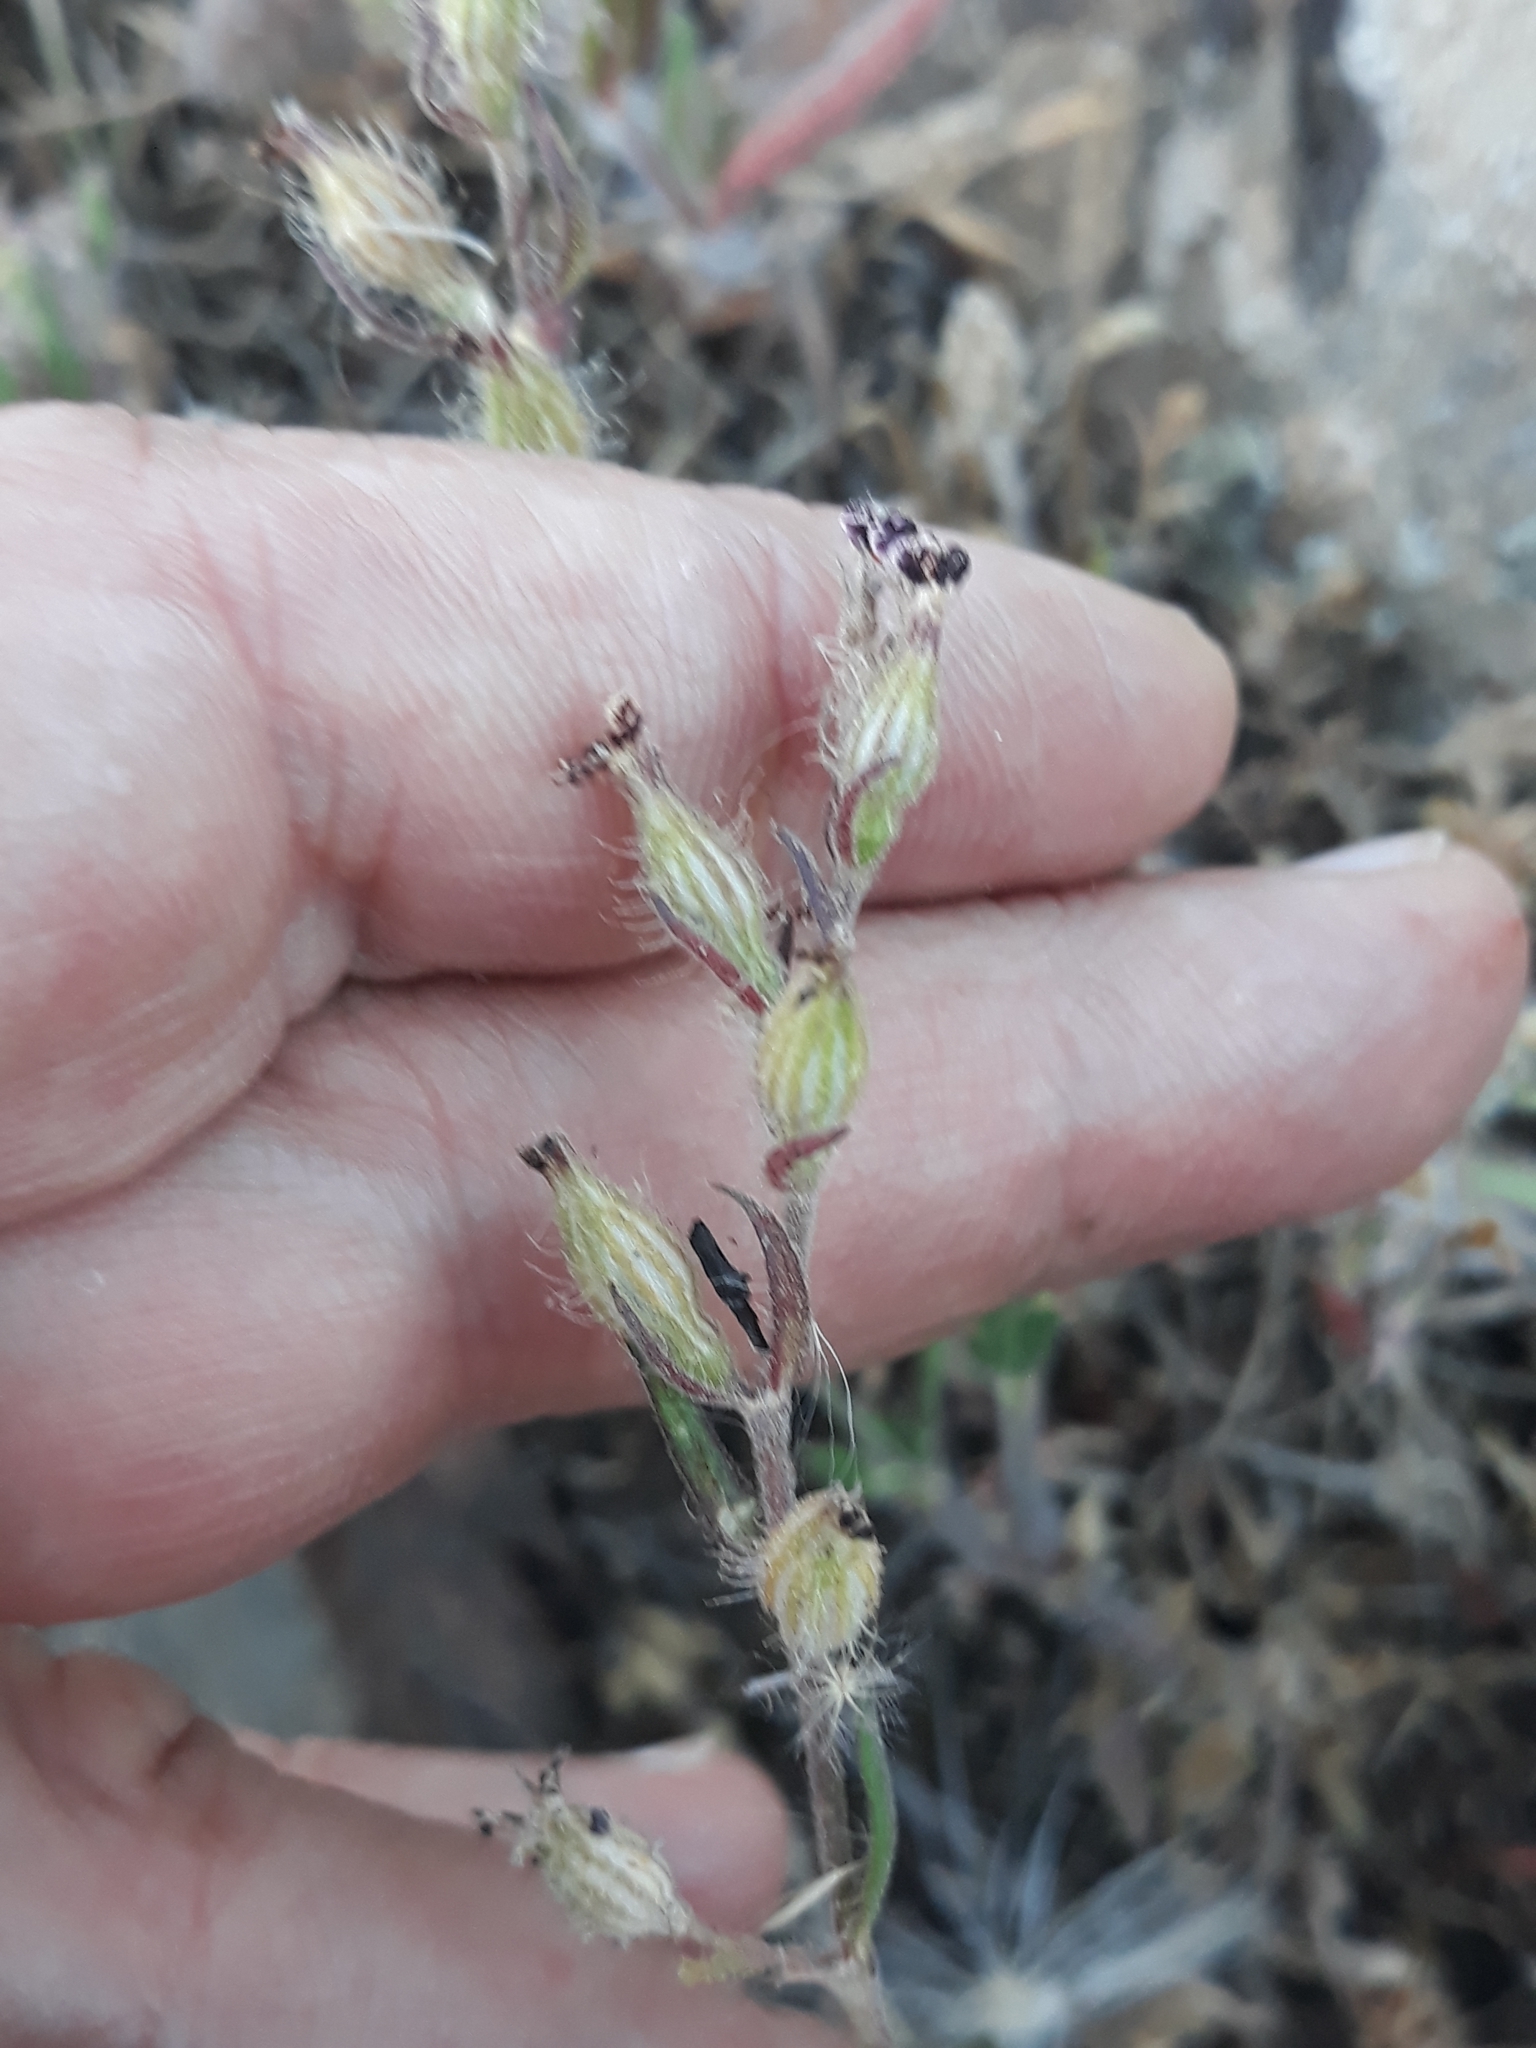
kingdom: Plantae
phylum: Tracheophyta
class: Magnoliopsida
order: Caryophyllales
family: Caryophyllaceae
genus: Silene
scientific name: Silene gallica
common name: Small-flowered catchfly
